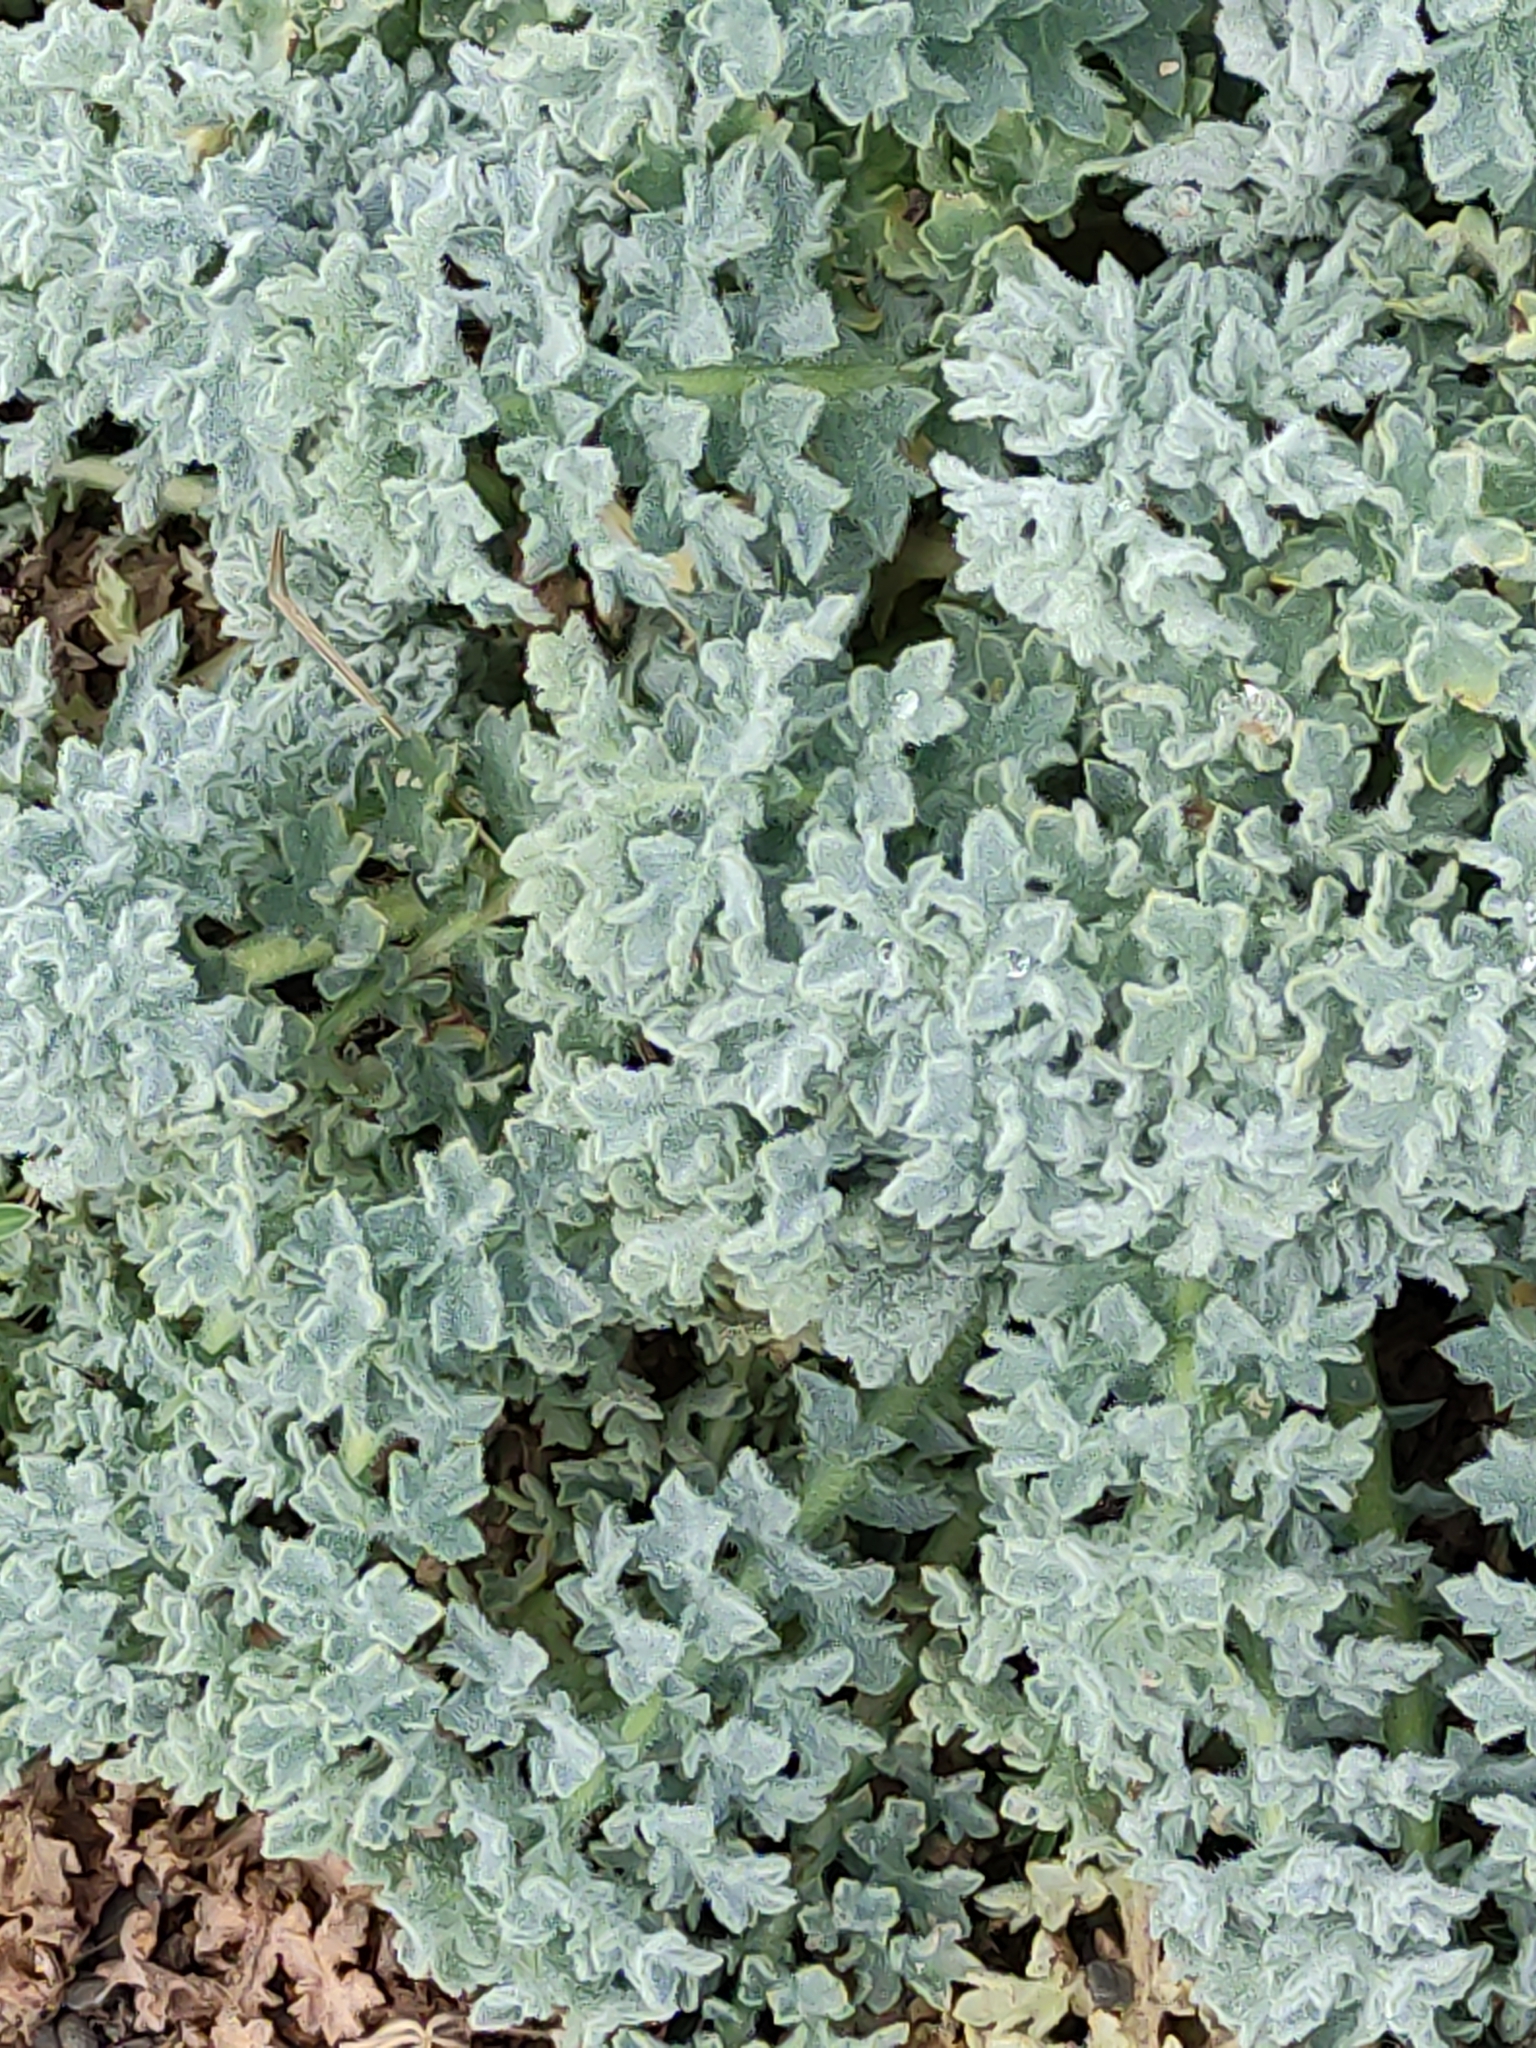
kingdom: Plantae
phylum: Tracheophyta
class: Magnoliopsida
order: Ranunculales
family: Papaveraceae
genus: Glaucium
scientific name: Glaucium flavum
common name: Yellow horned-poppy
